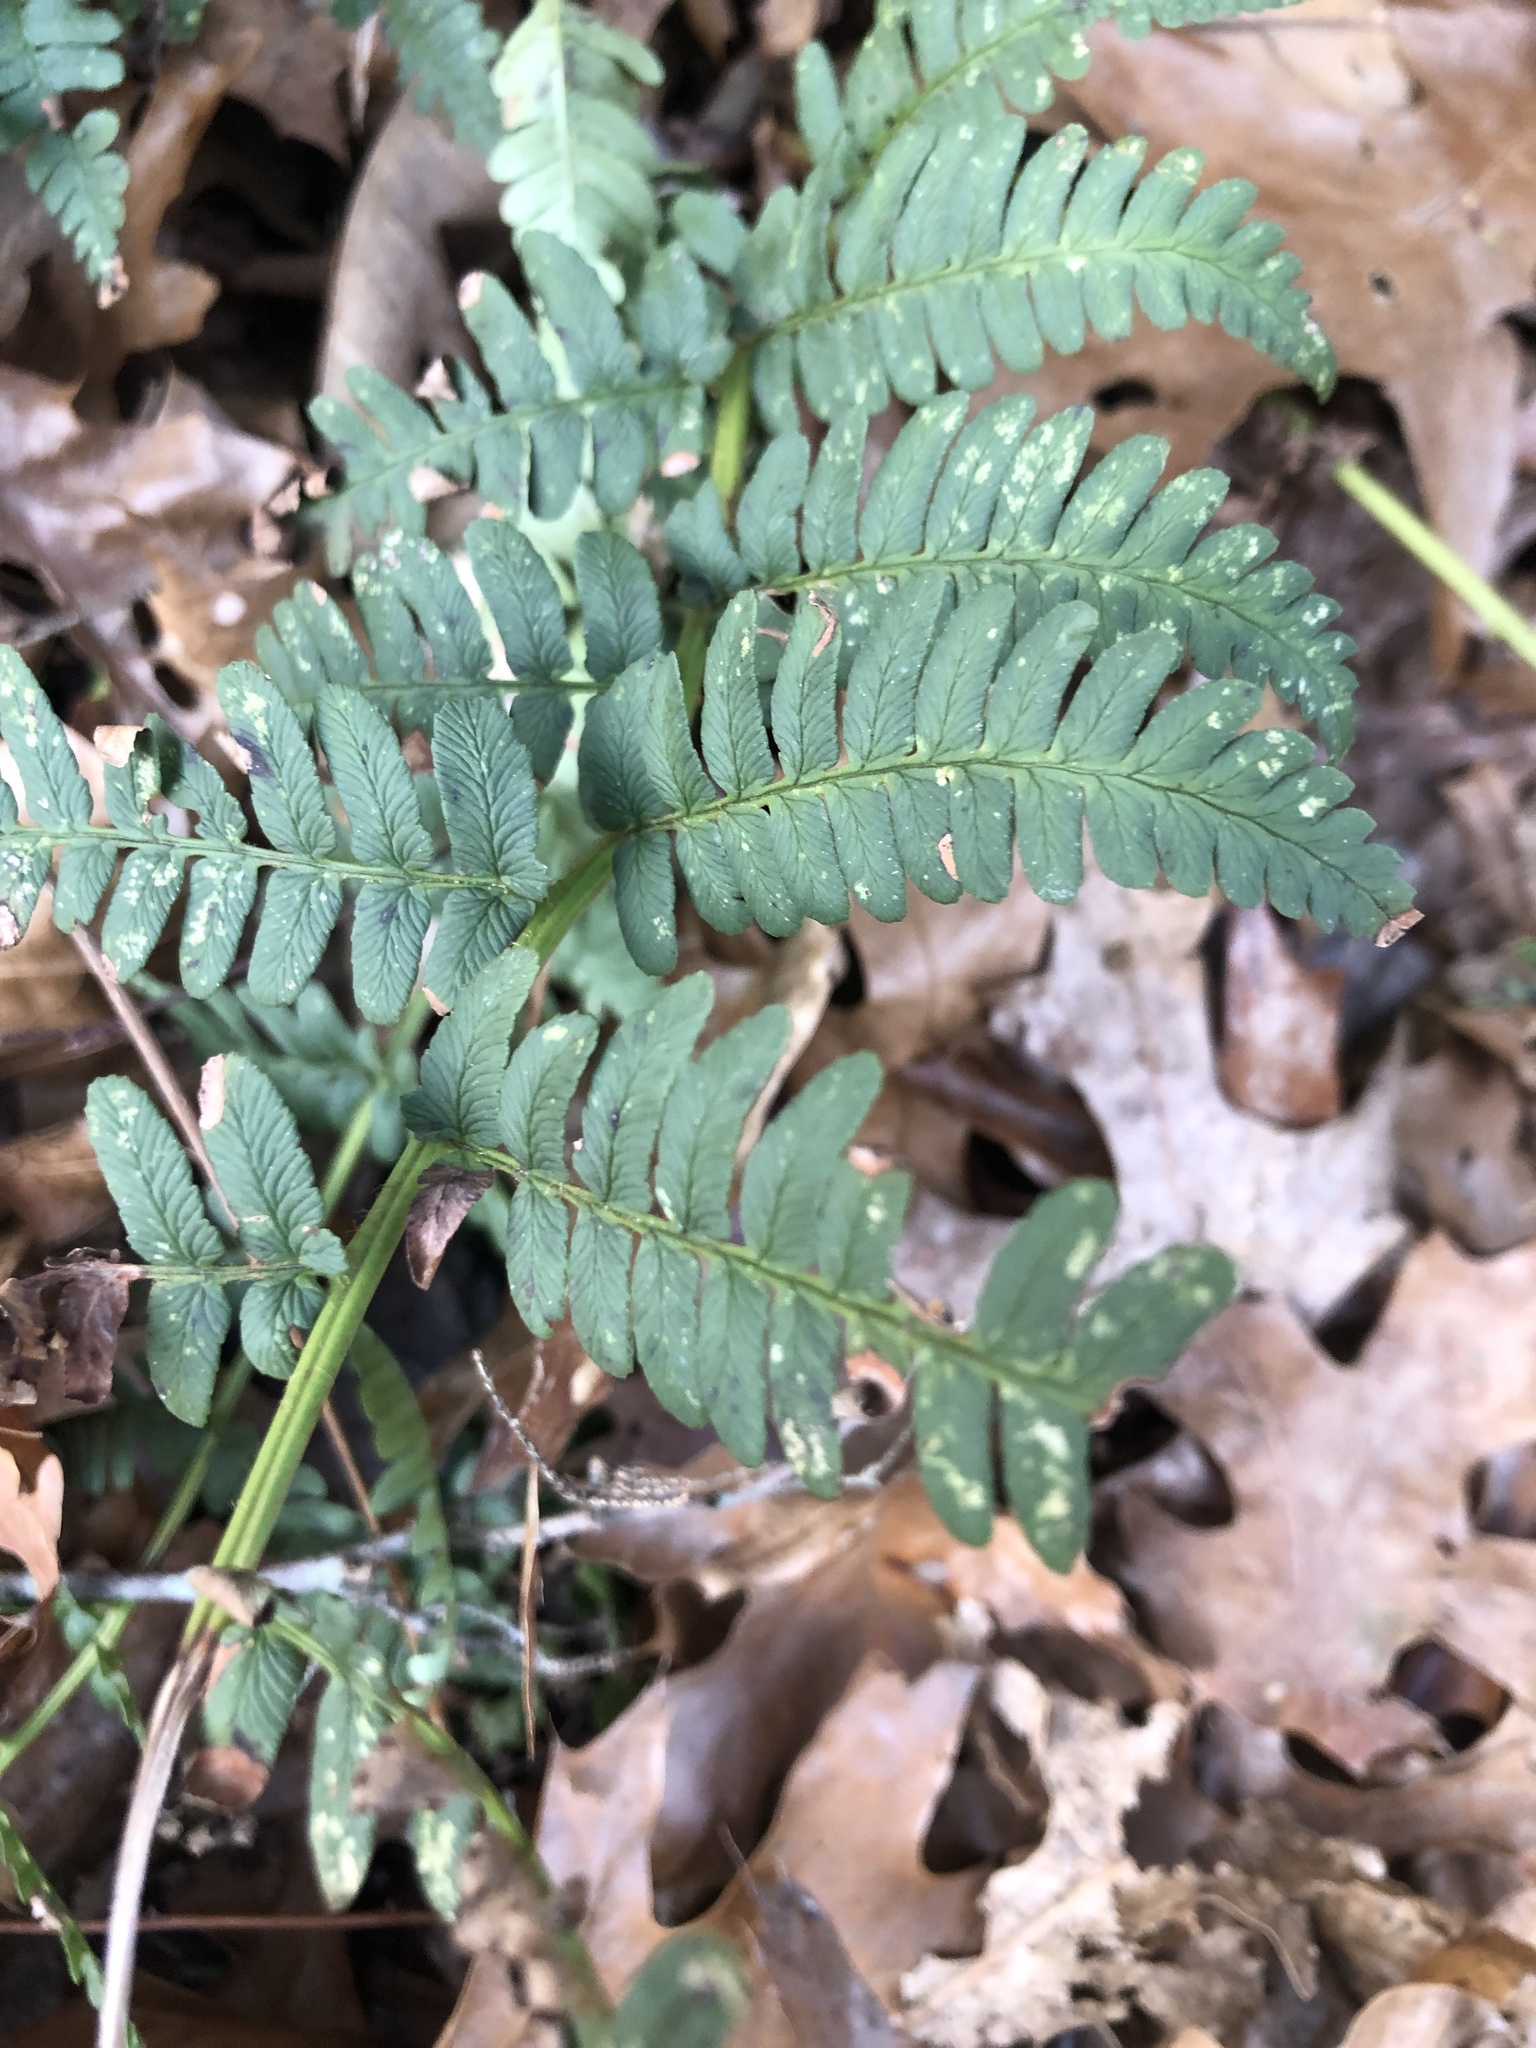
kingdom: Plantae
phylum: Tracheophyta
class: Polypodiopsida
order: Polypodiales
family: Dryopteridaceae
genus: Dryopteris
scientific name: Dryopteris marginalis
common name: Marginal wood fern
